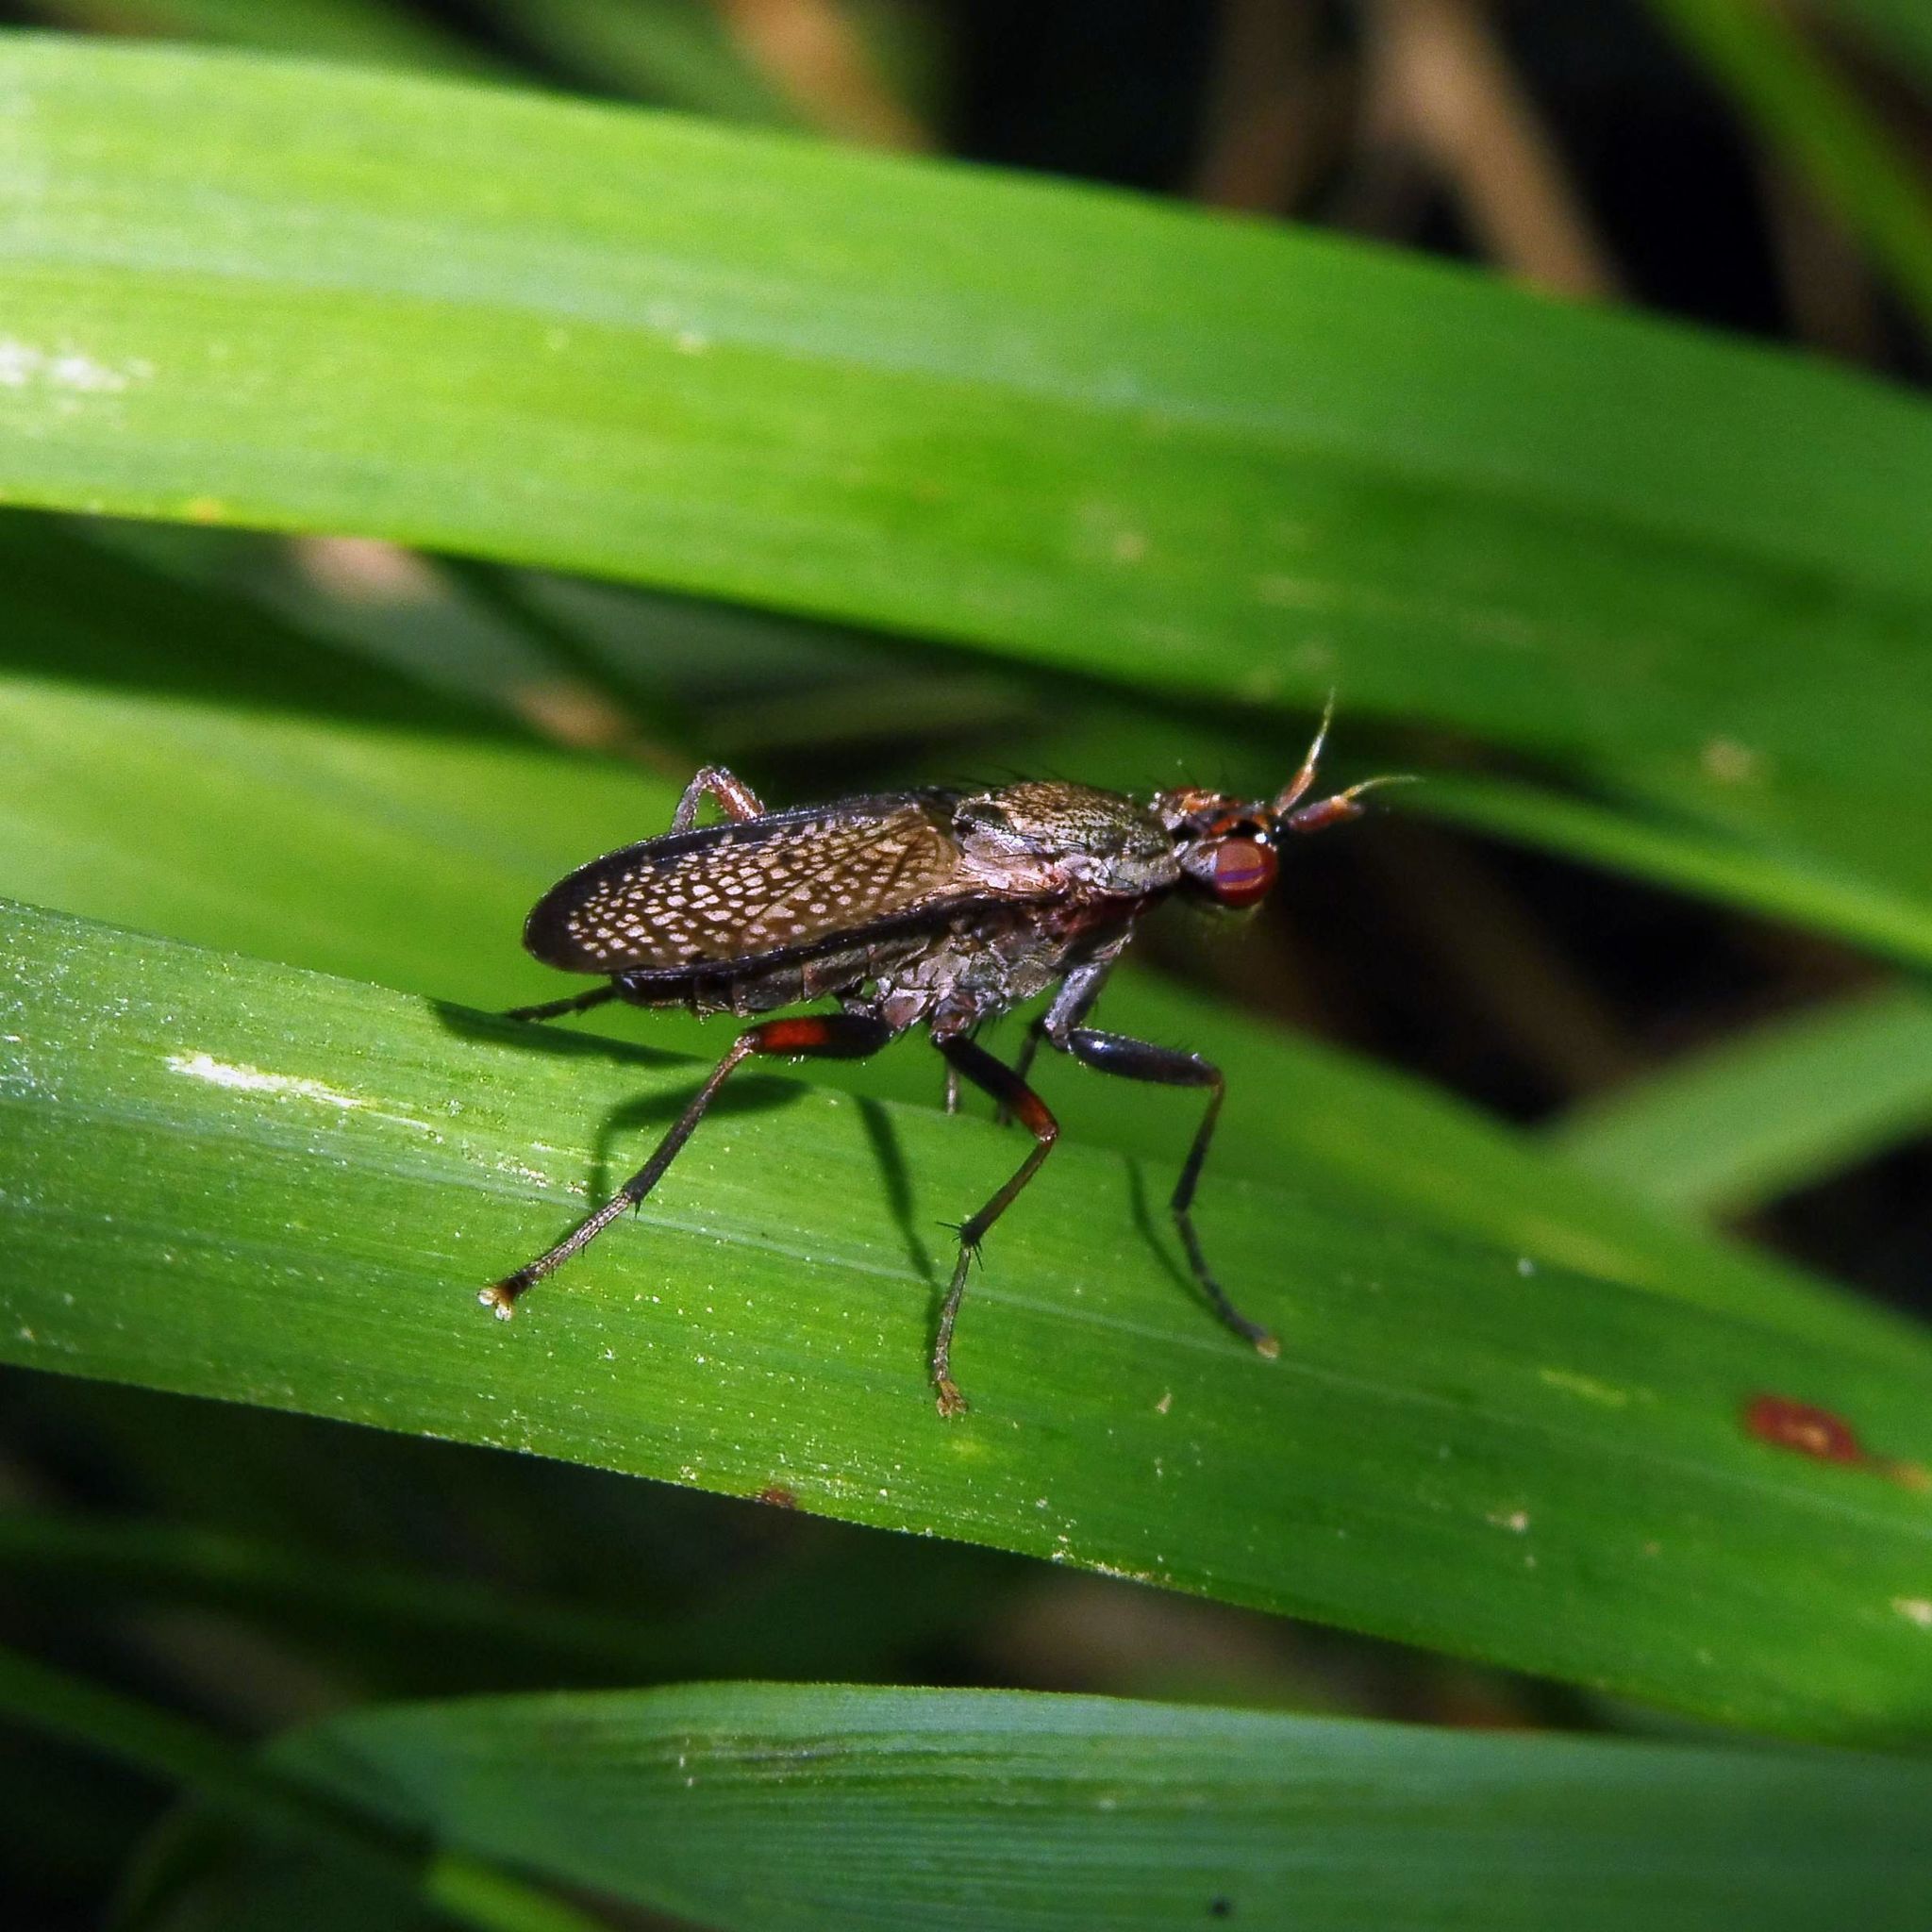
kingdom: Animalia
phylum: Arthropoda
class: Insecta
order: Diptera
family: Sciomyzidae
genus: Coremacera
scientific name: Coremacera marginata
